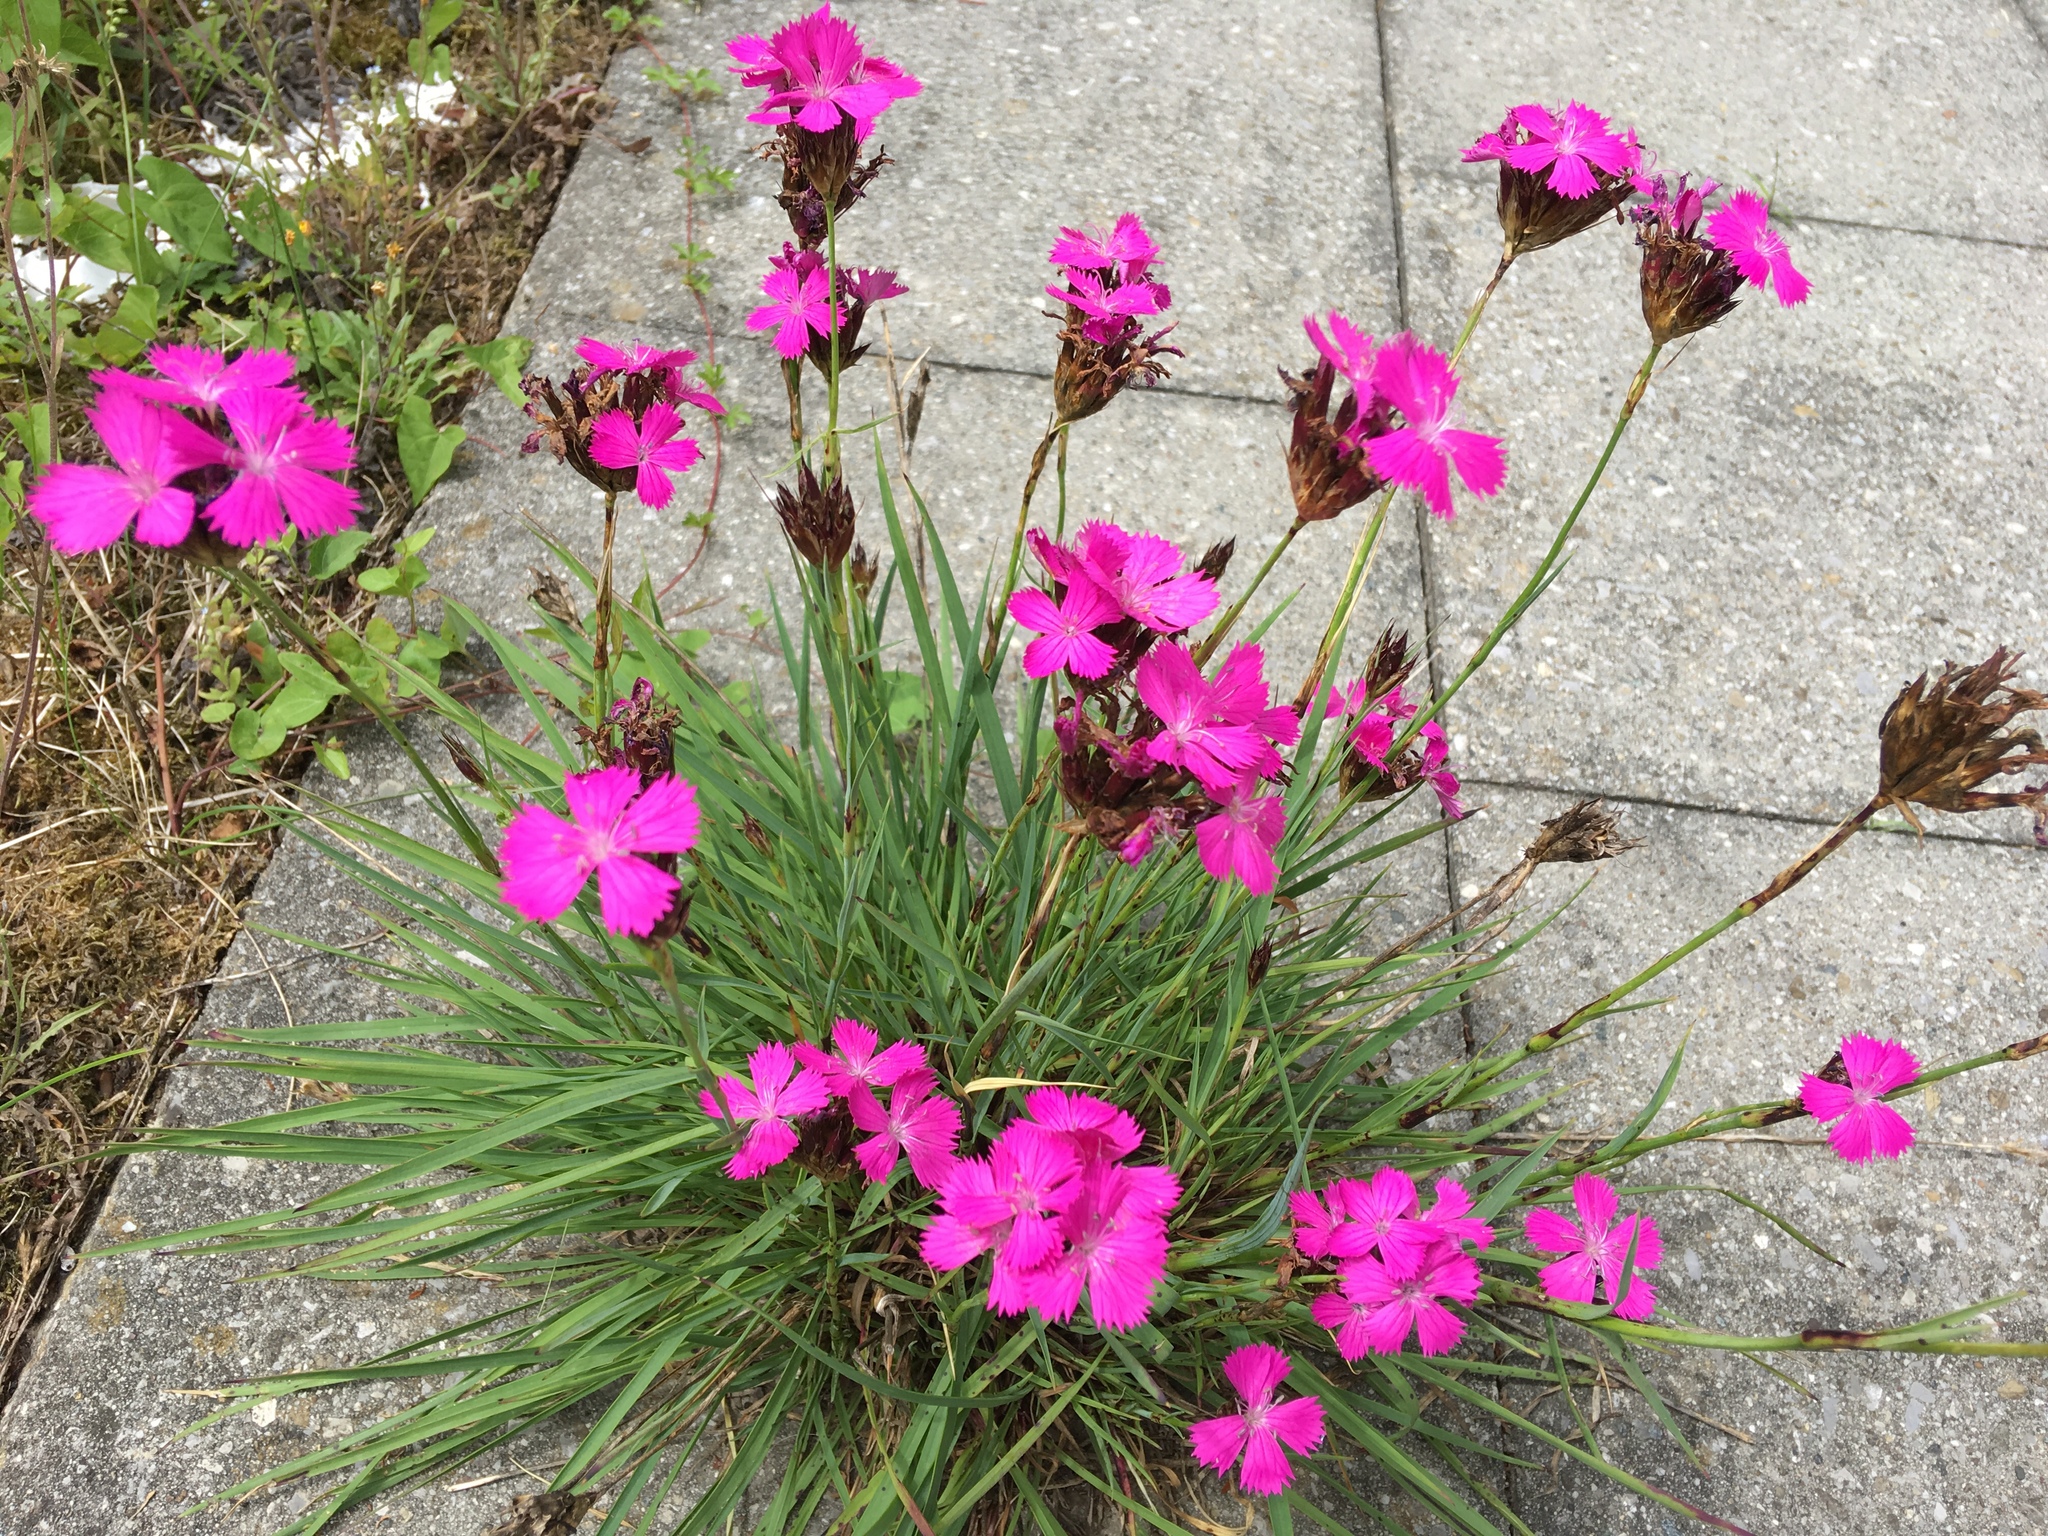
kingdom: Plantae
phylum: Tracheophyta
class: Magnoliopsida
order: Caryophyllales
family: Caryophyllaceae
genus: Dianthus
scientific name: Dianthus carthusianorum
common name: Carthusian pink
